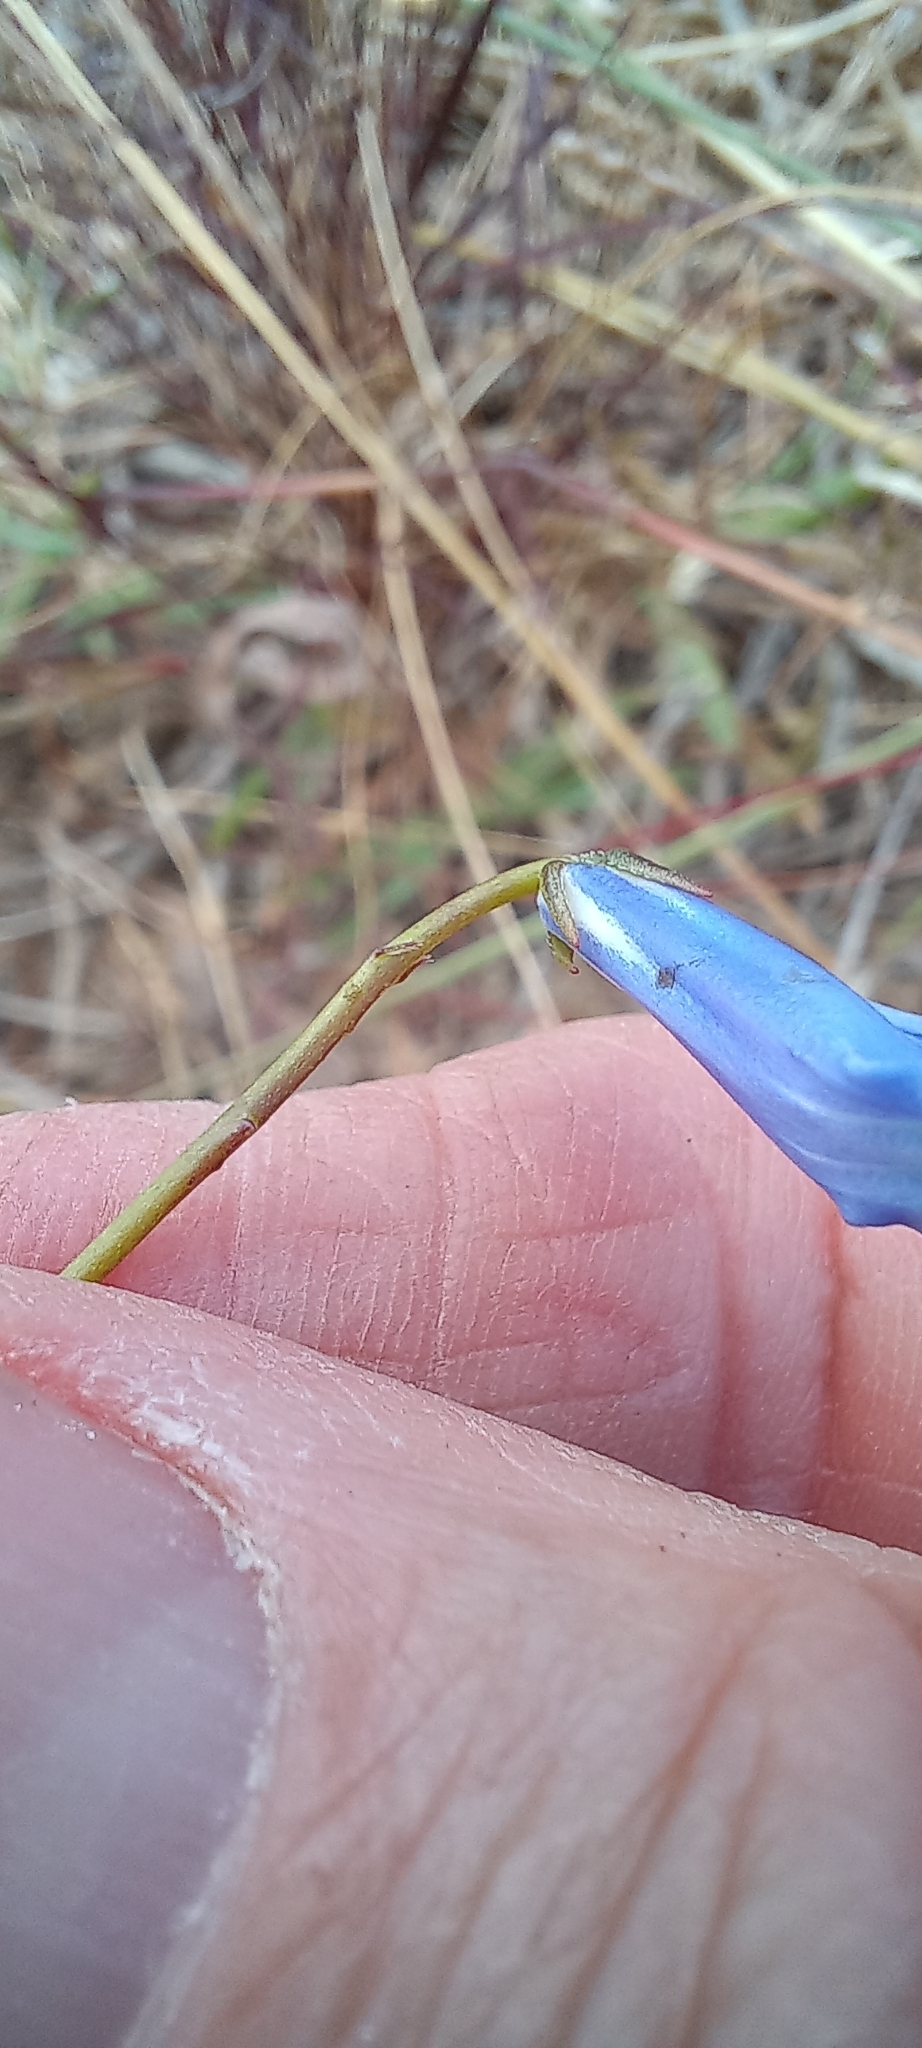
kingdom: Plantae
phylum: Tracheophyta
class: Magnoliopsida
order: Asterales
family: Campanulaceae
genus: Lobelia
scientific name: Lobelia chamaepitys
